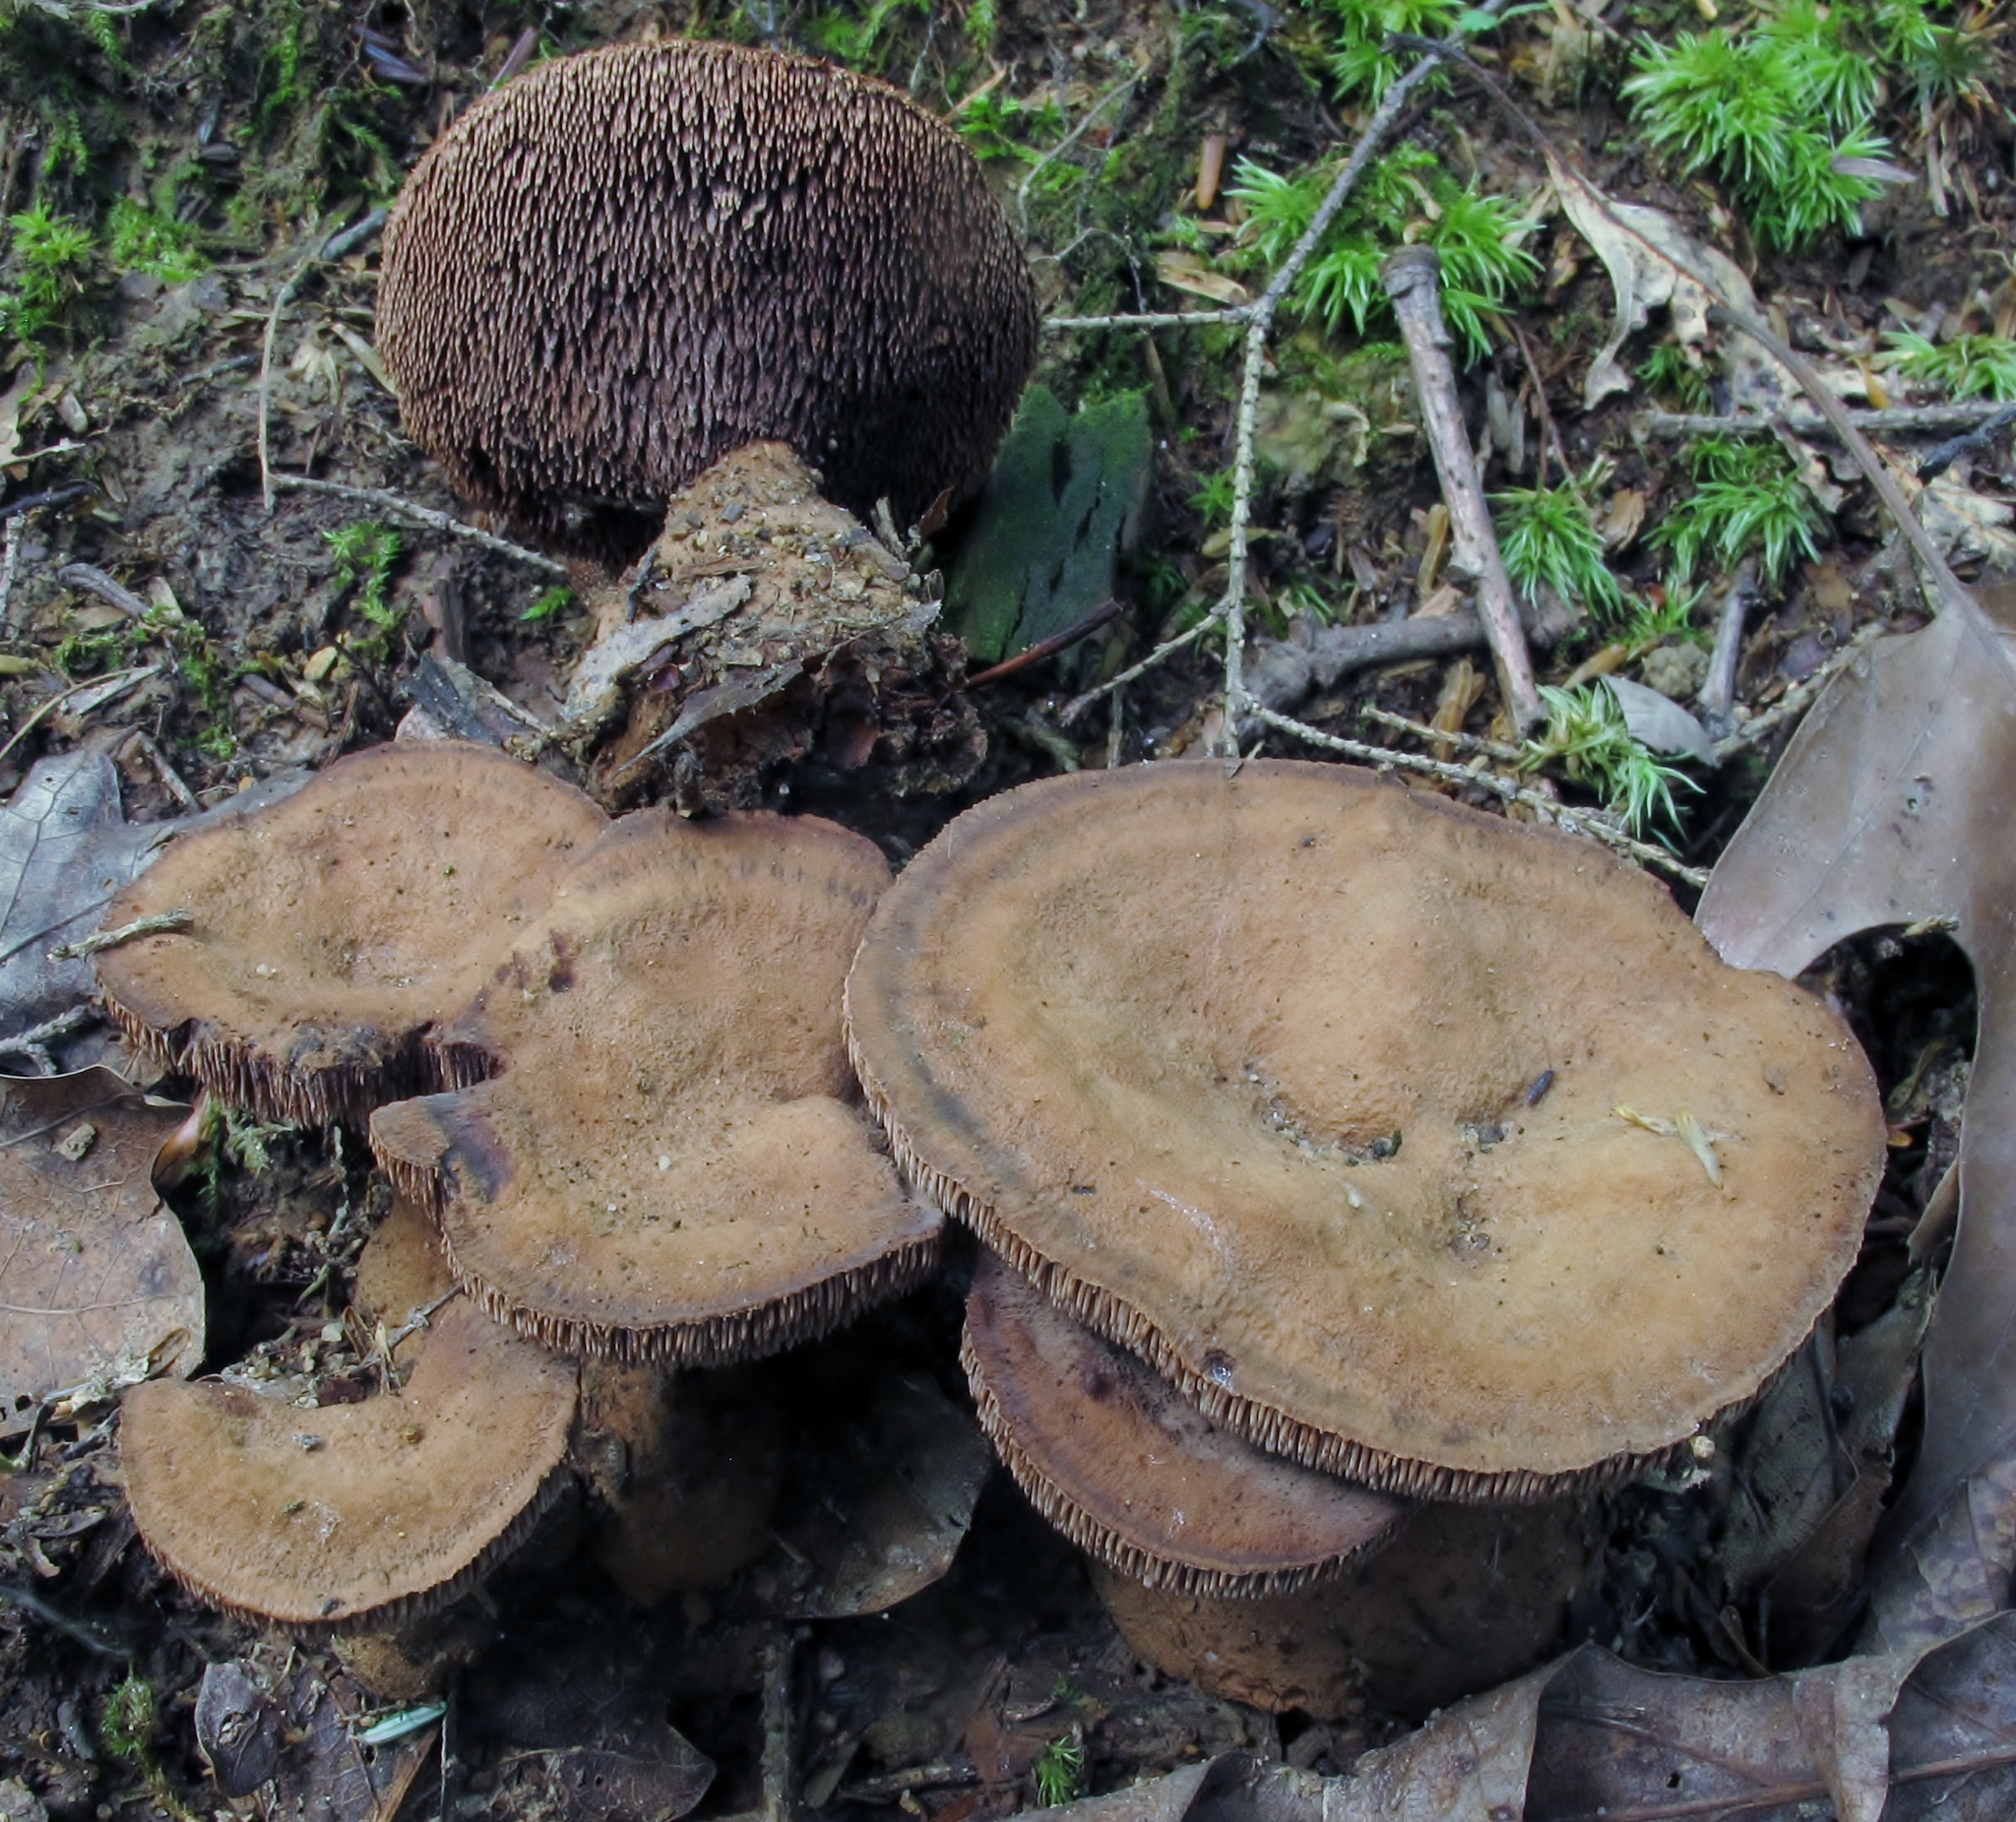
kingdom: Fungi
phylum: Basidiomycota
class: Agaricomycetes
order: Thelephorales
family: Bankeraceae
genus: Hydnellum
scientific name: Hydnellum spongiosipes
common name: Velvet tooth
